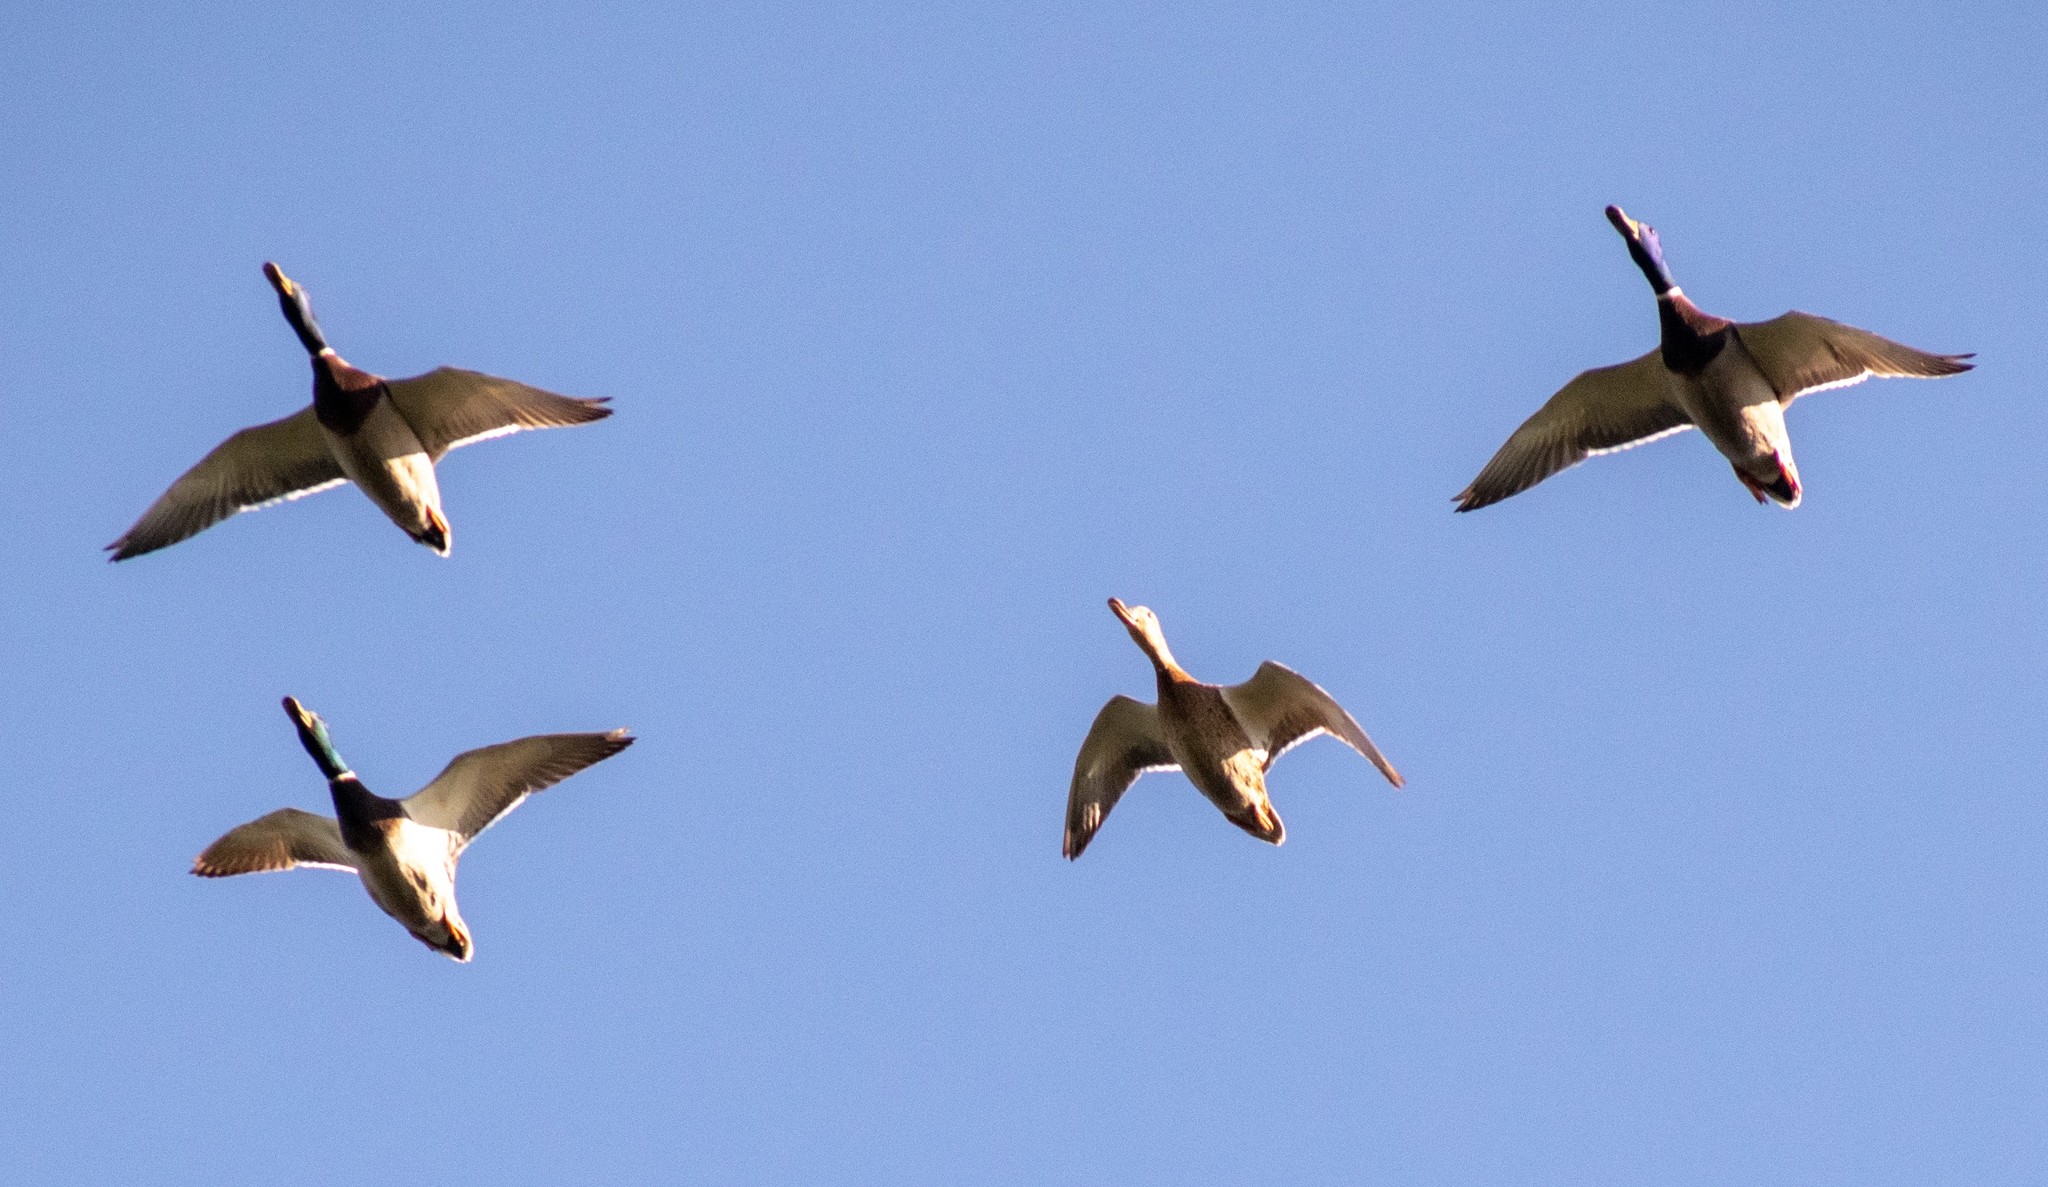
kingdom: Animalia
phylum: Chordata
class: Aves
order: Anseriformes
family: Anatidae
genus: Anas
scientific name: Anas platyrhynchos
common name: Mallard
